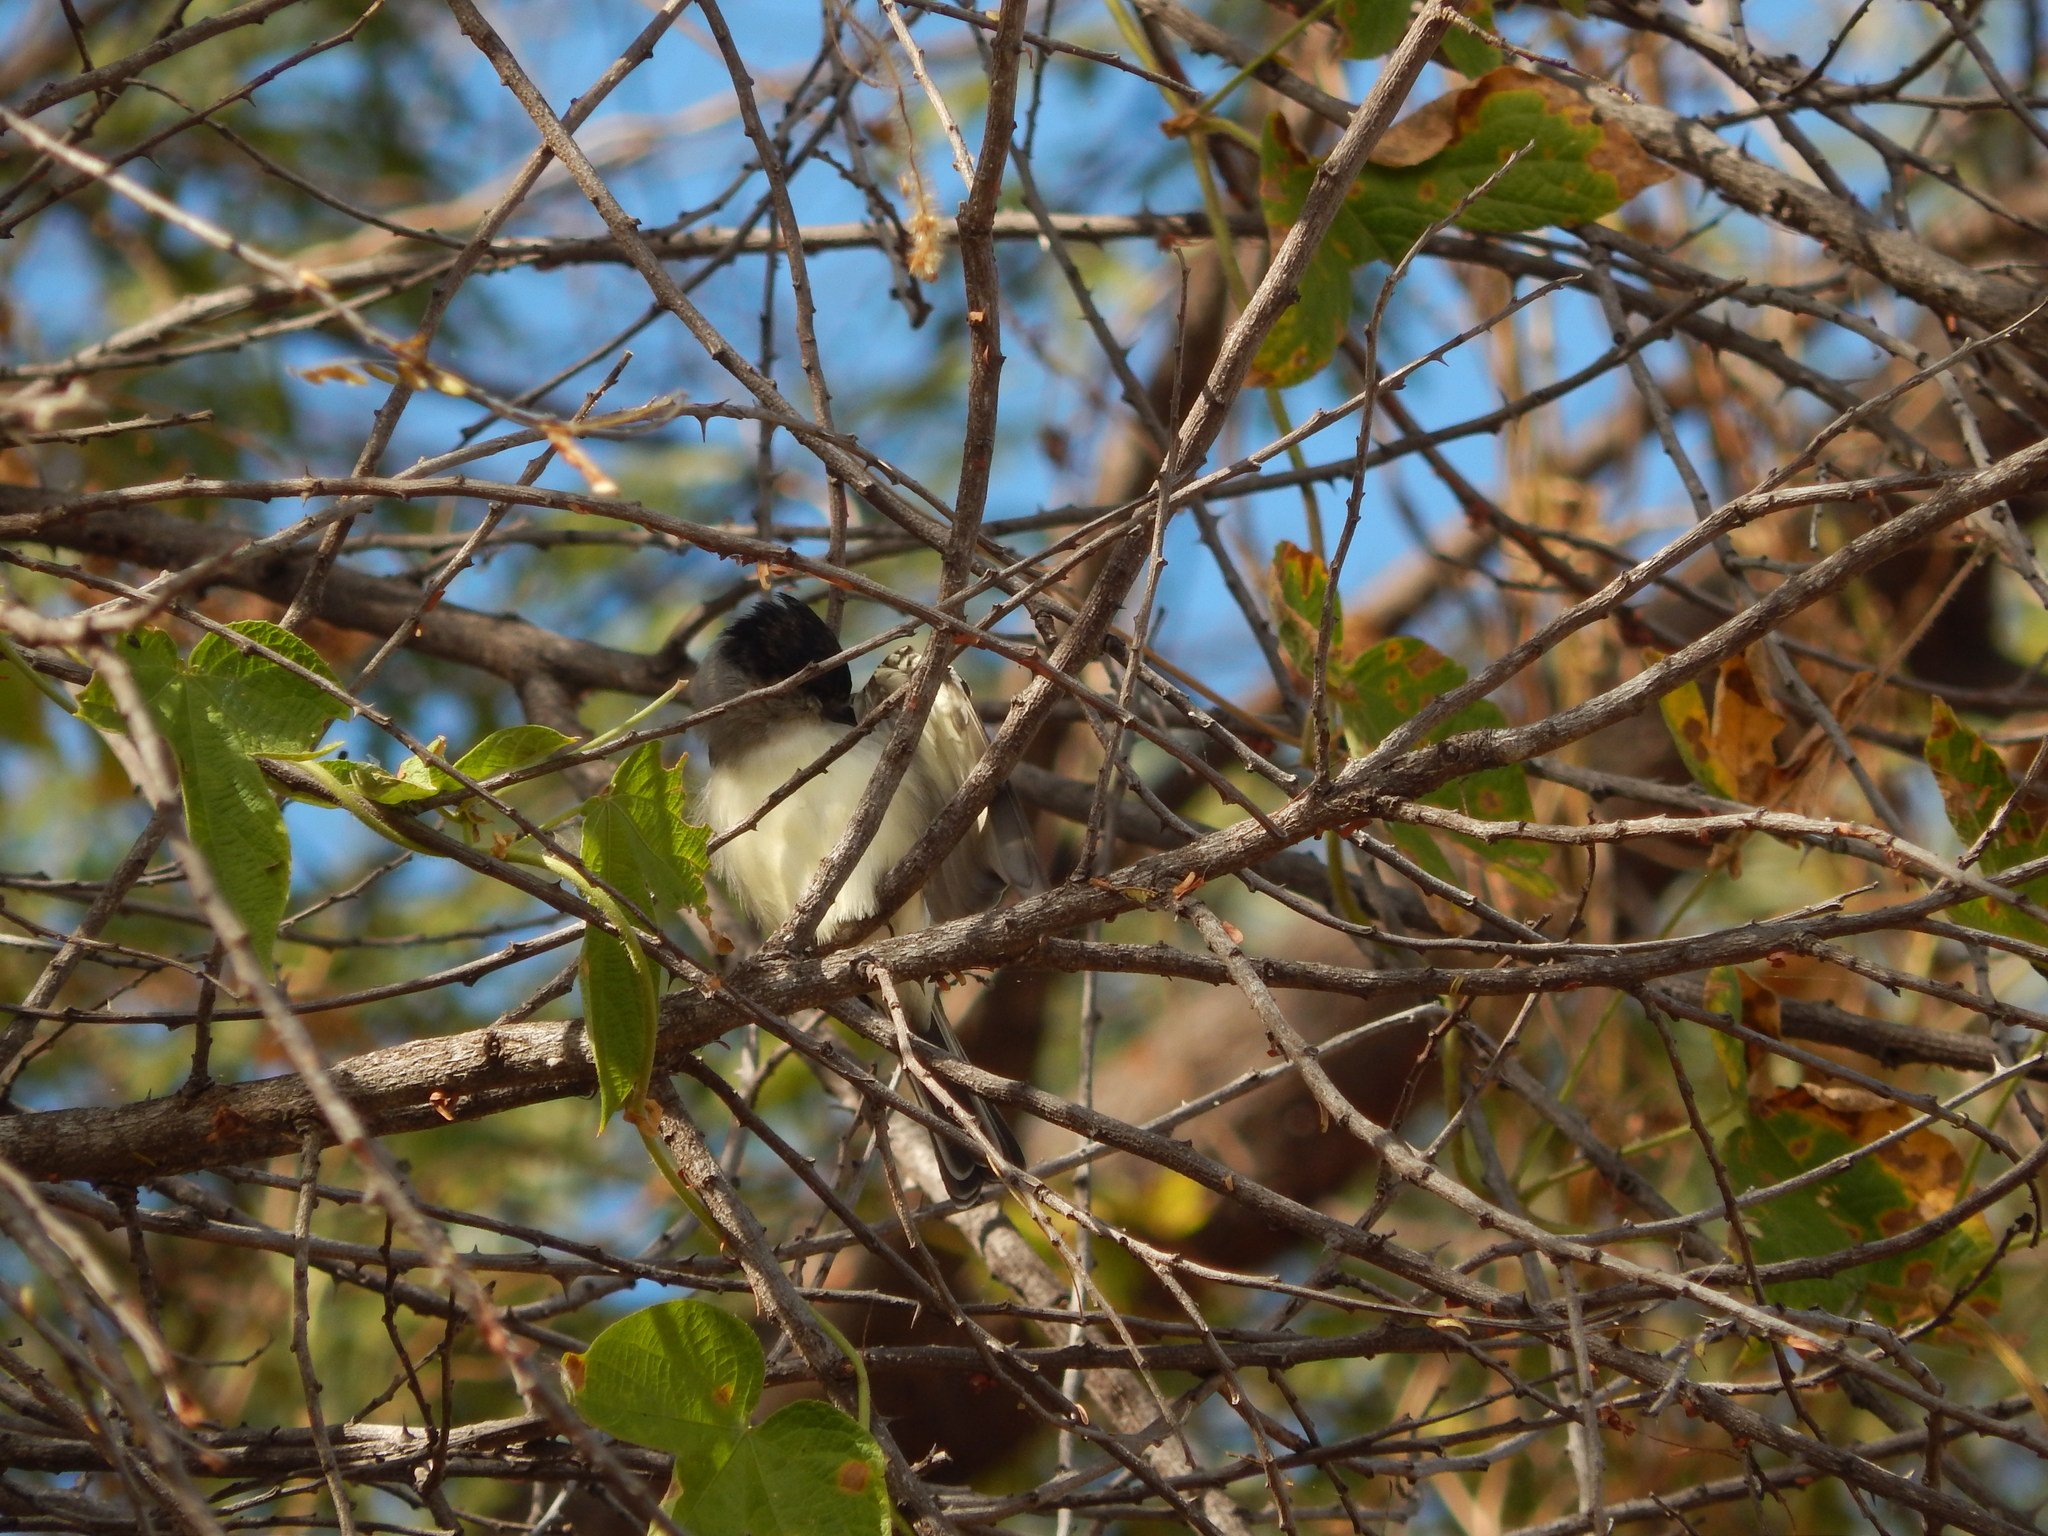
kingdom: Animalia
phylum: Chordata
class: Aves
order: Passeriformes
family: Cotingidae
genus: Xenopsaris
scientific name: Xenopsaris albinucha
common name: White-naped xenopsaris
